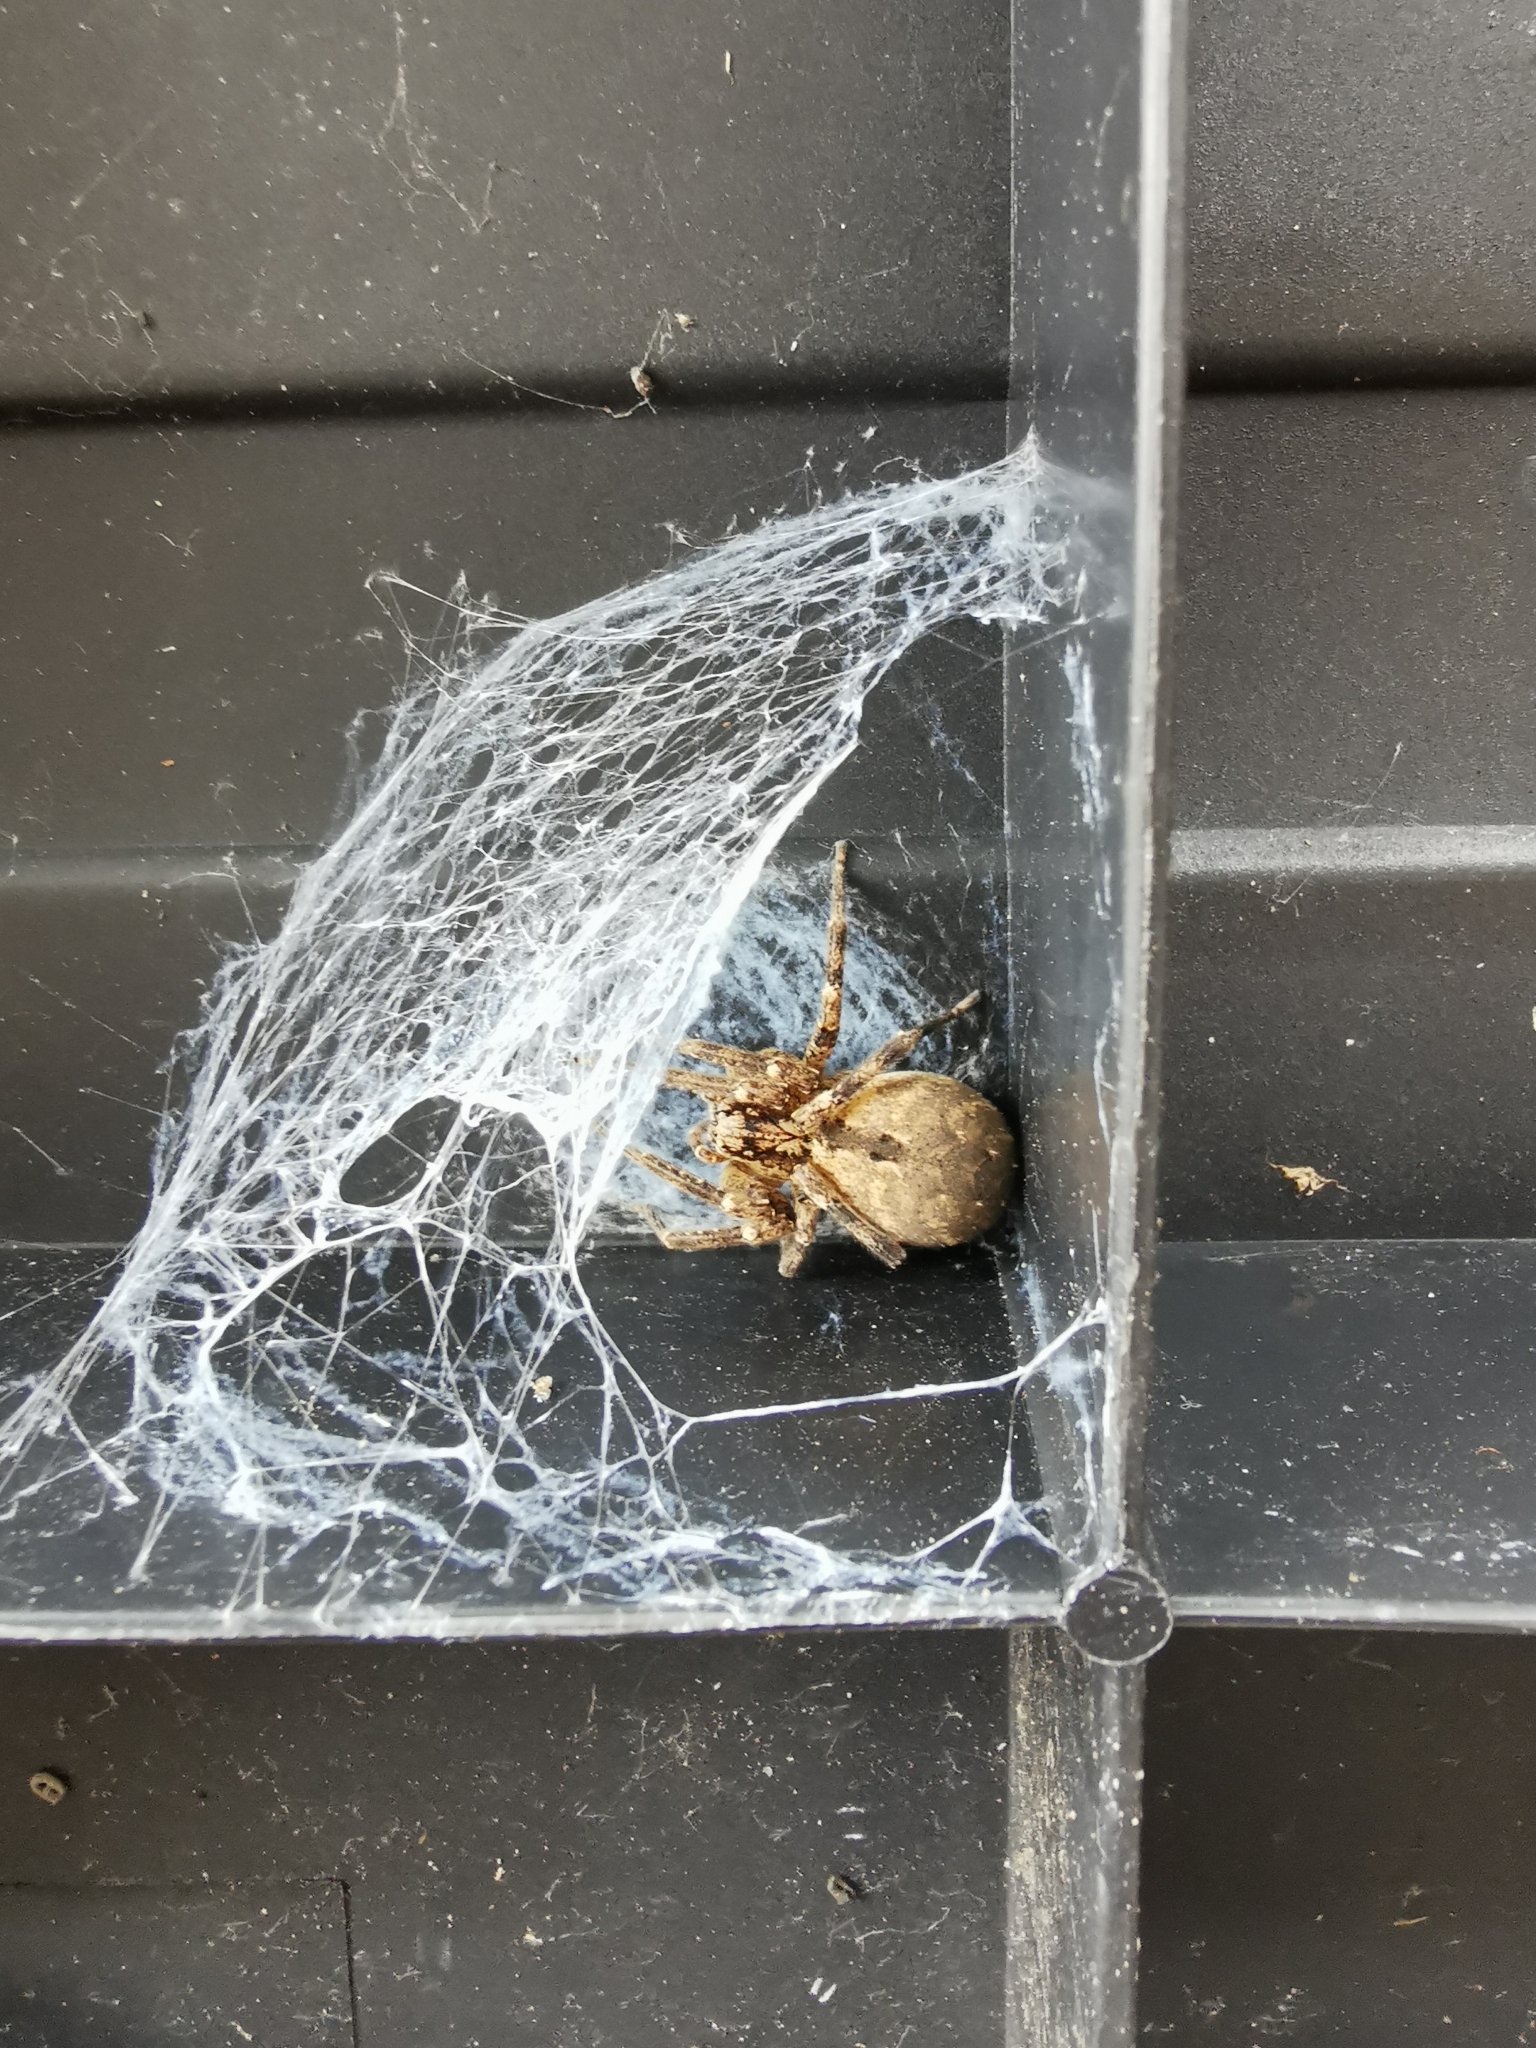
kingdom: Animalia
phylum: Arthropoda
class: Arachnida
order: Araneae
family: Zoropsidae
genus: Zoropsis
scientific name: Zoropsis spinimana
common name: Zoropsid spider
